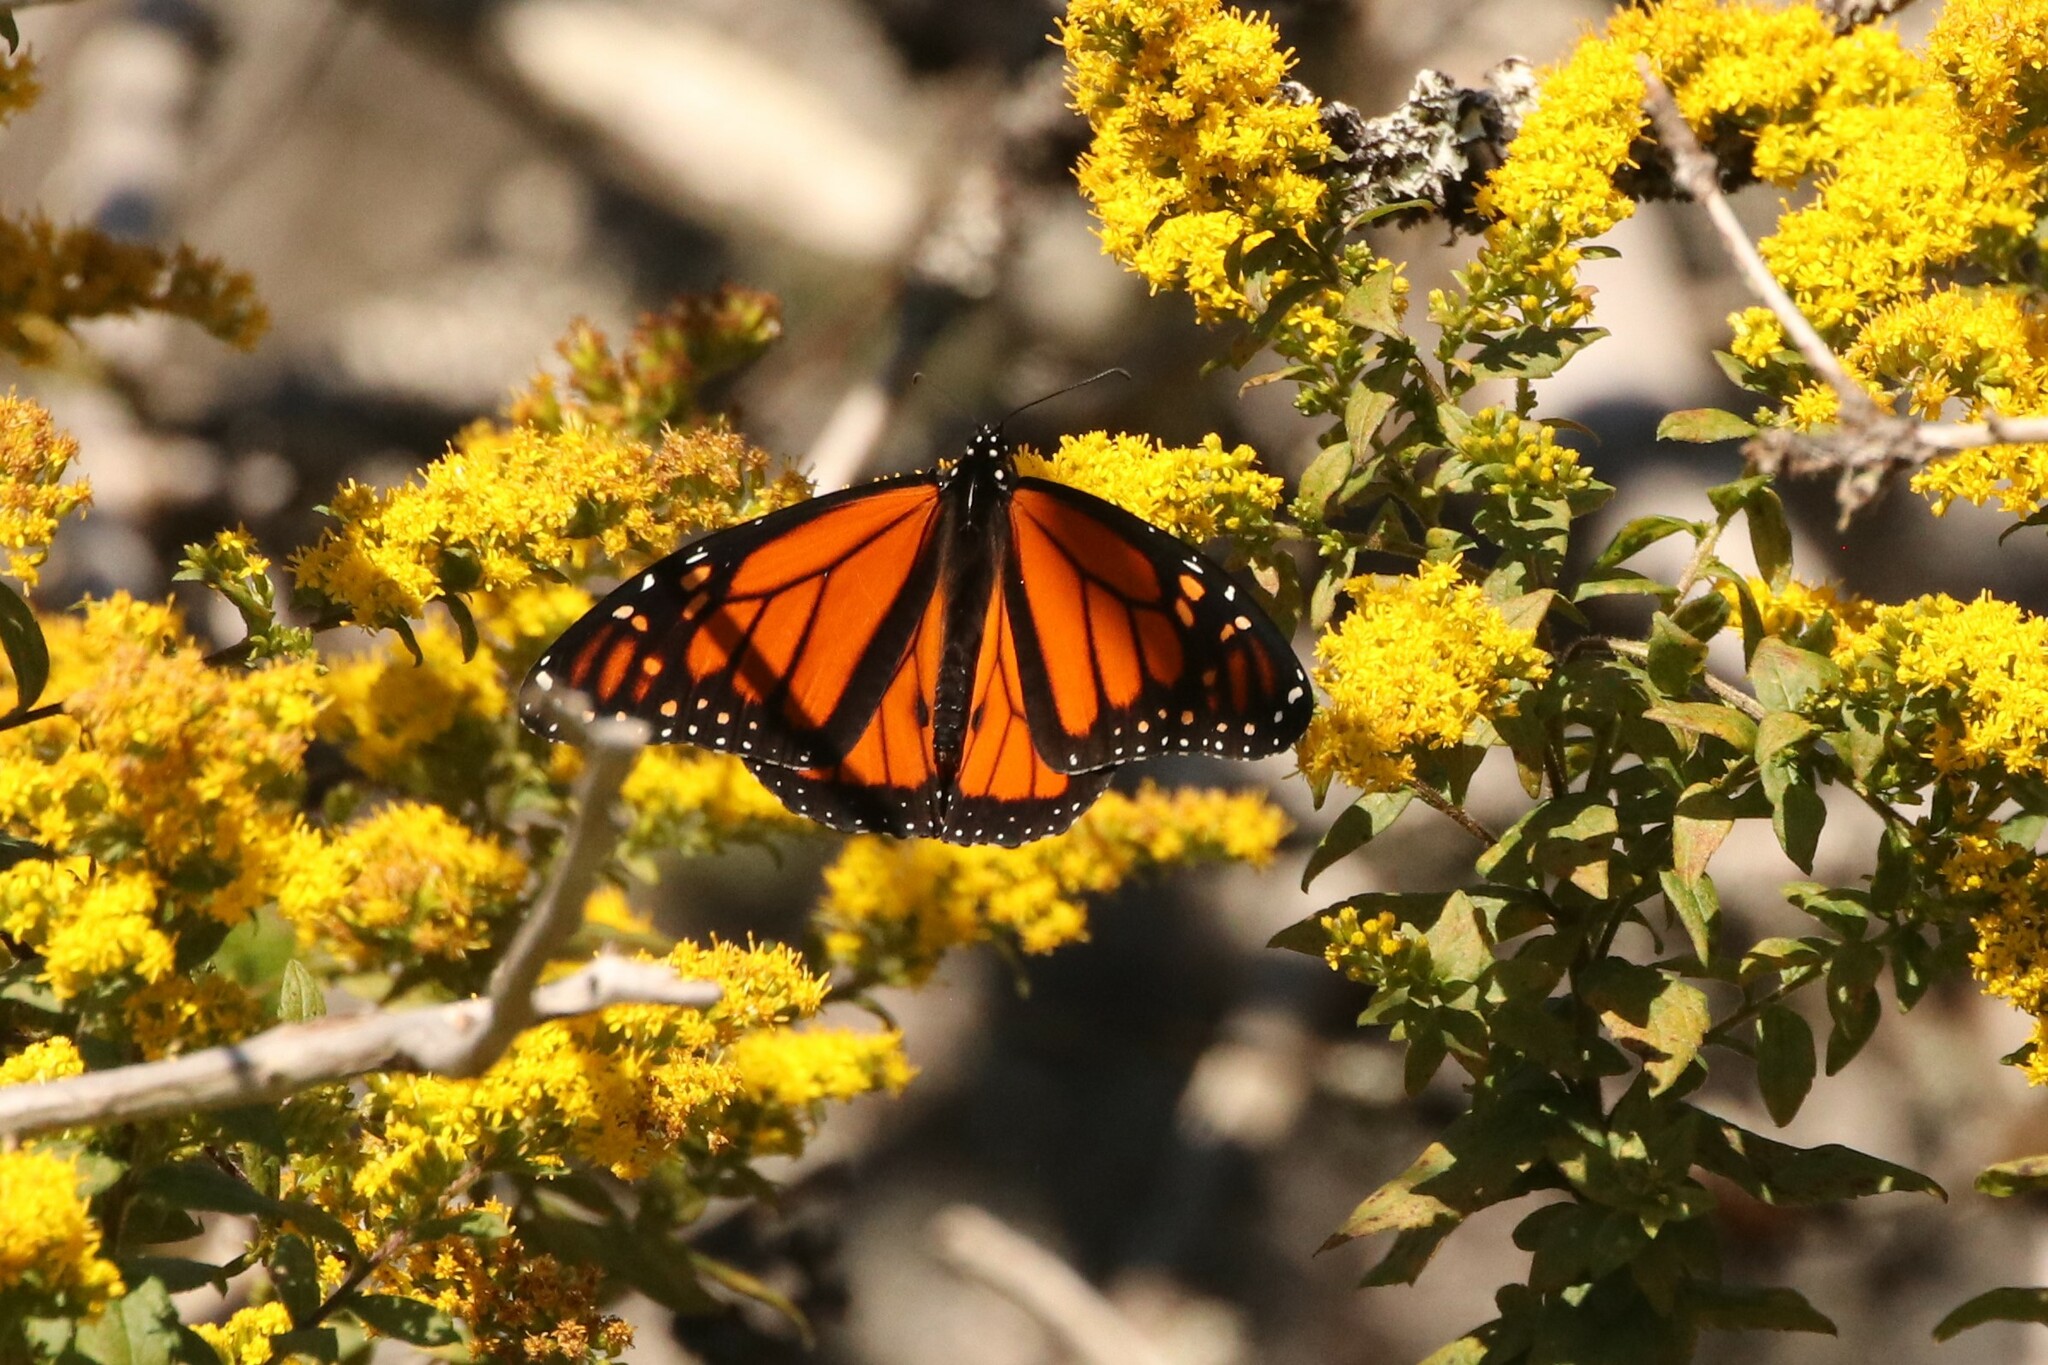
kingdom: Animalia
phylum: Arthropoda
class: Insecta
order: Lepidoptera
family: Nymphalidae
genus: Danaus
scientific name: Danaus plexippus
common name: Monarch
